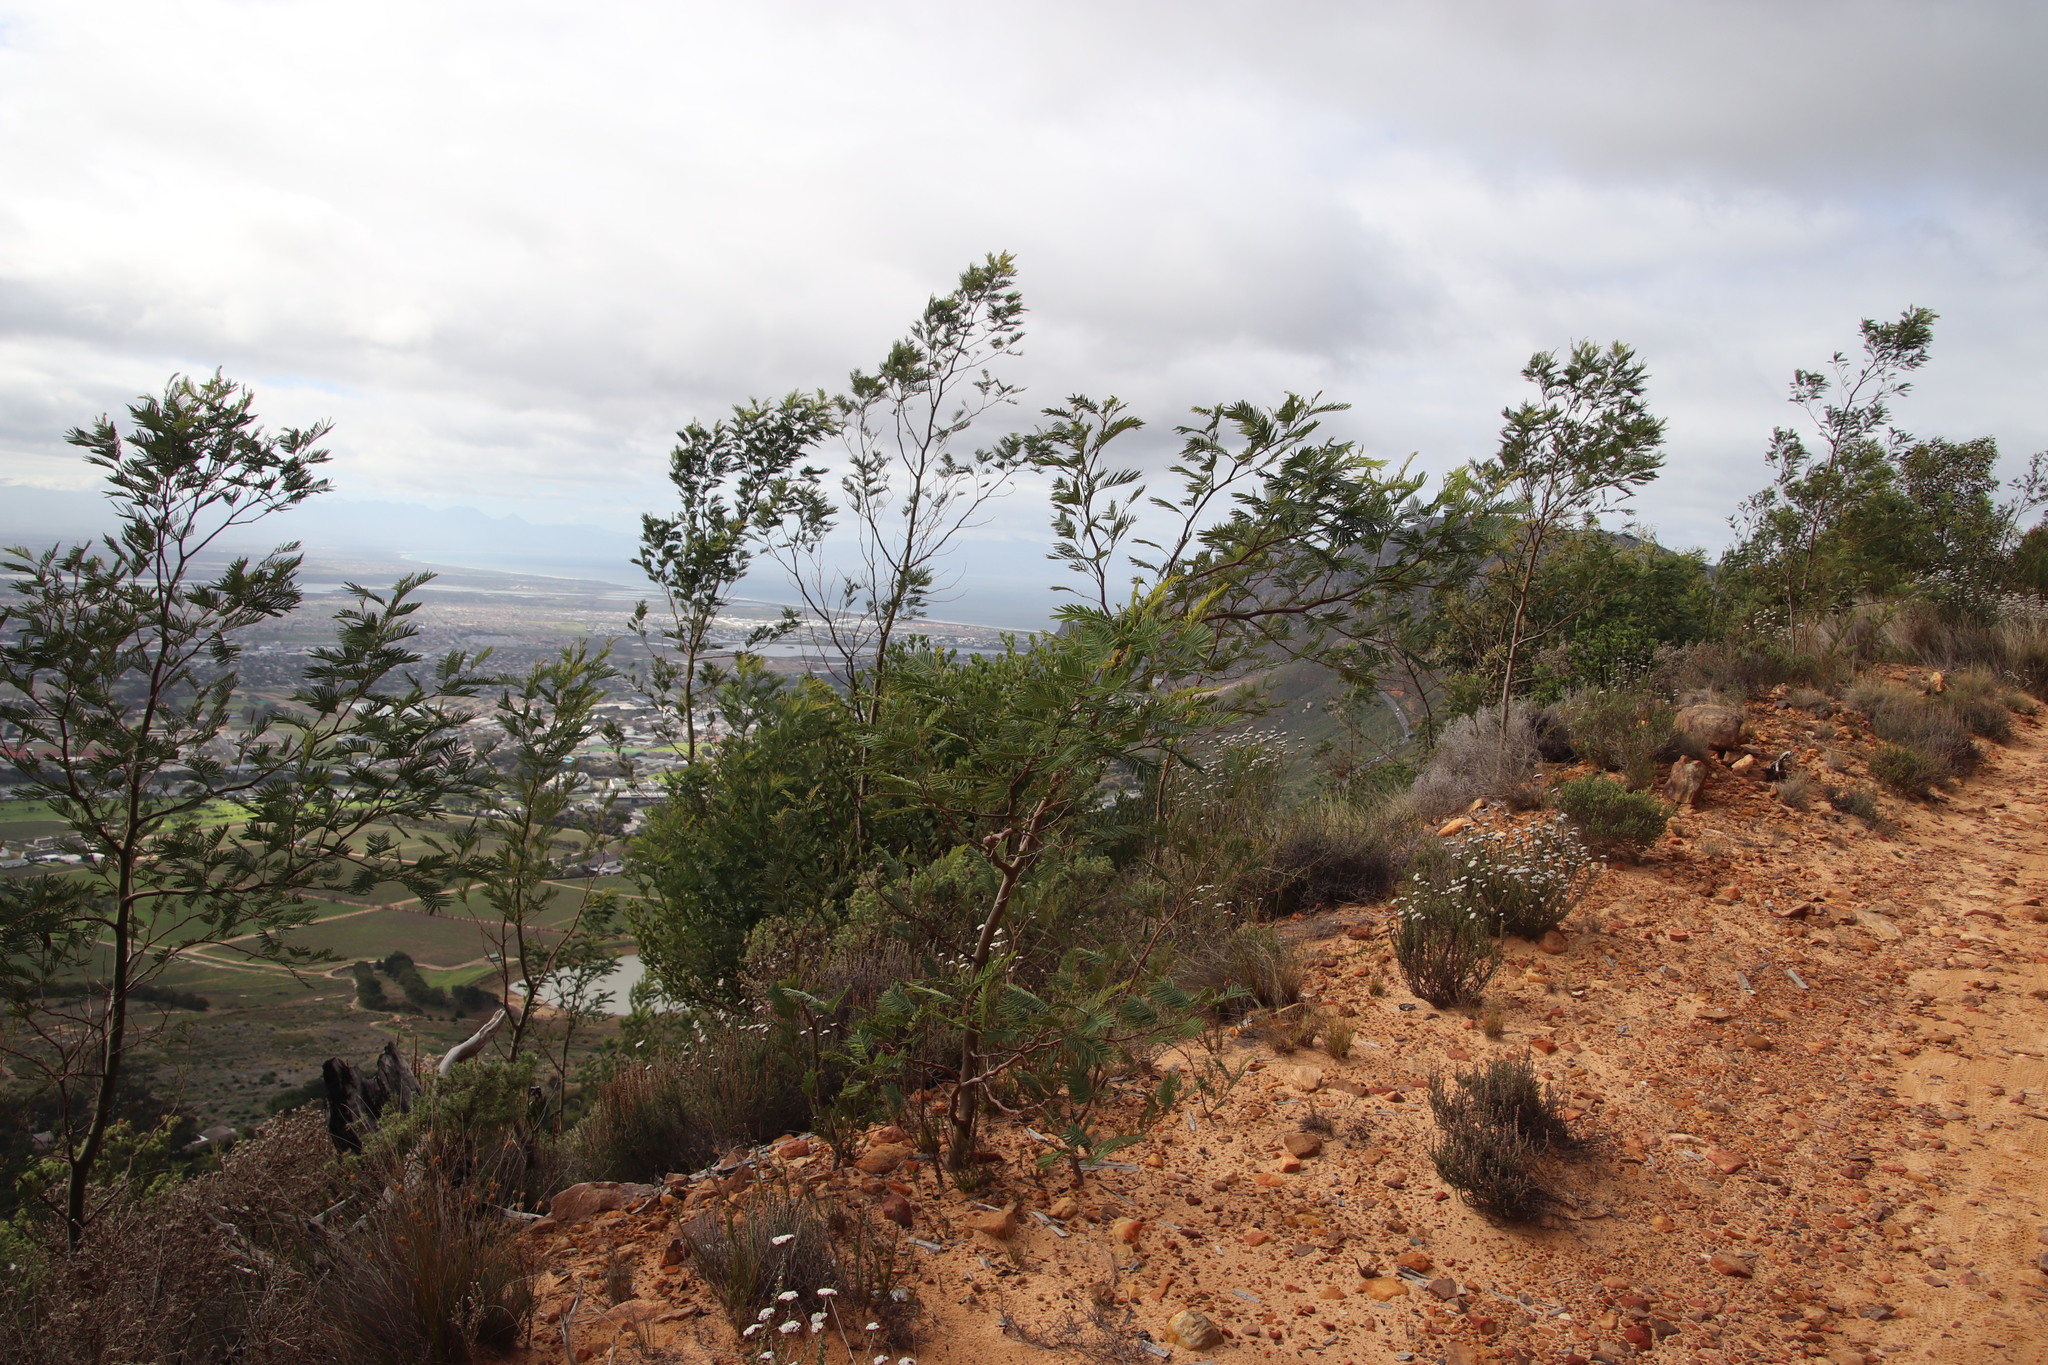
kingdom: Plantae
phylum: Tracheophyta
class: Magnoliopsida
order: Fabales
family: Fabaceae
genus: Acacia
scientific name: Acacia mearnsii
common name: Black wattle
